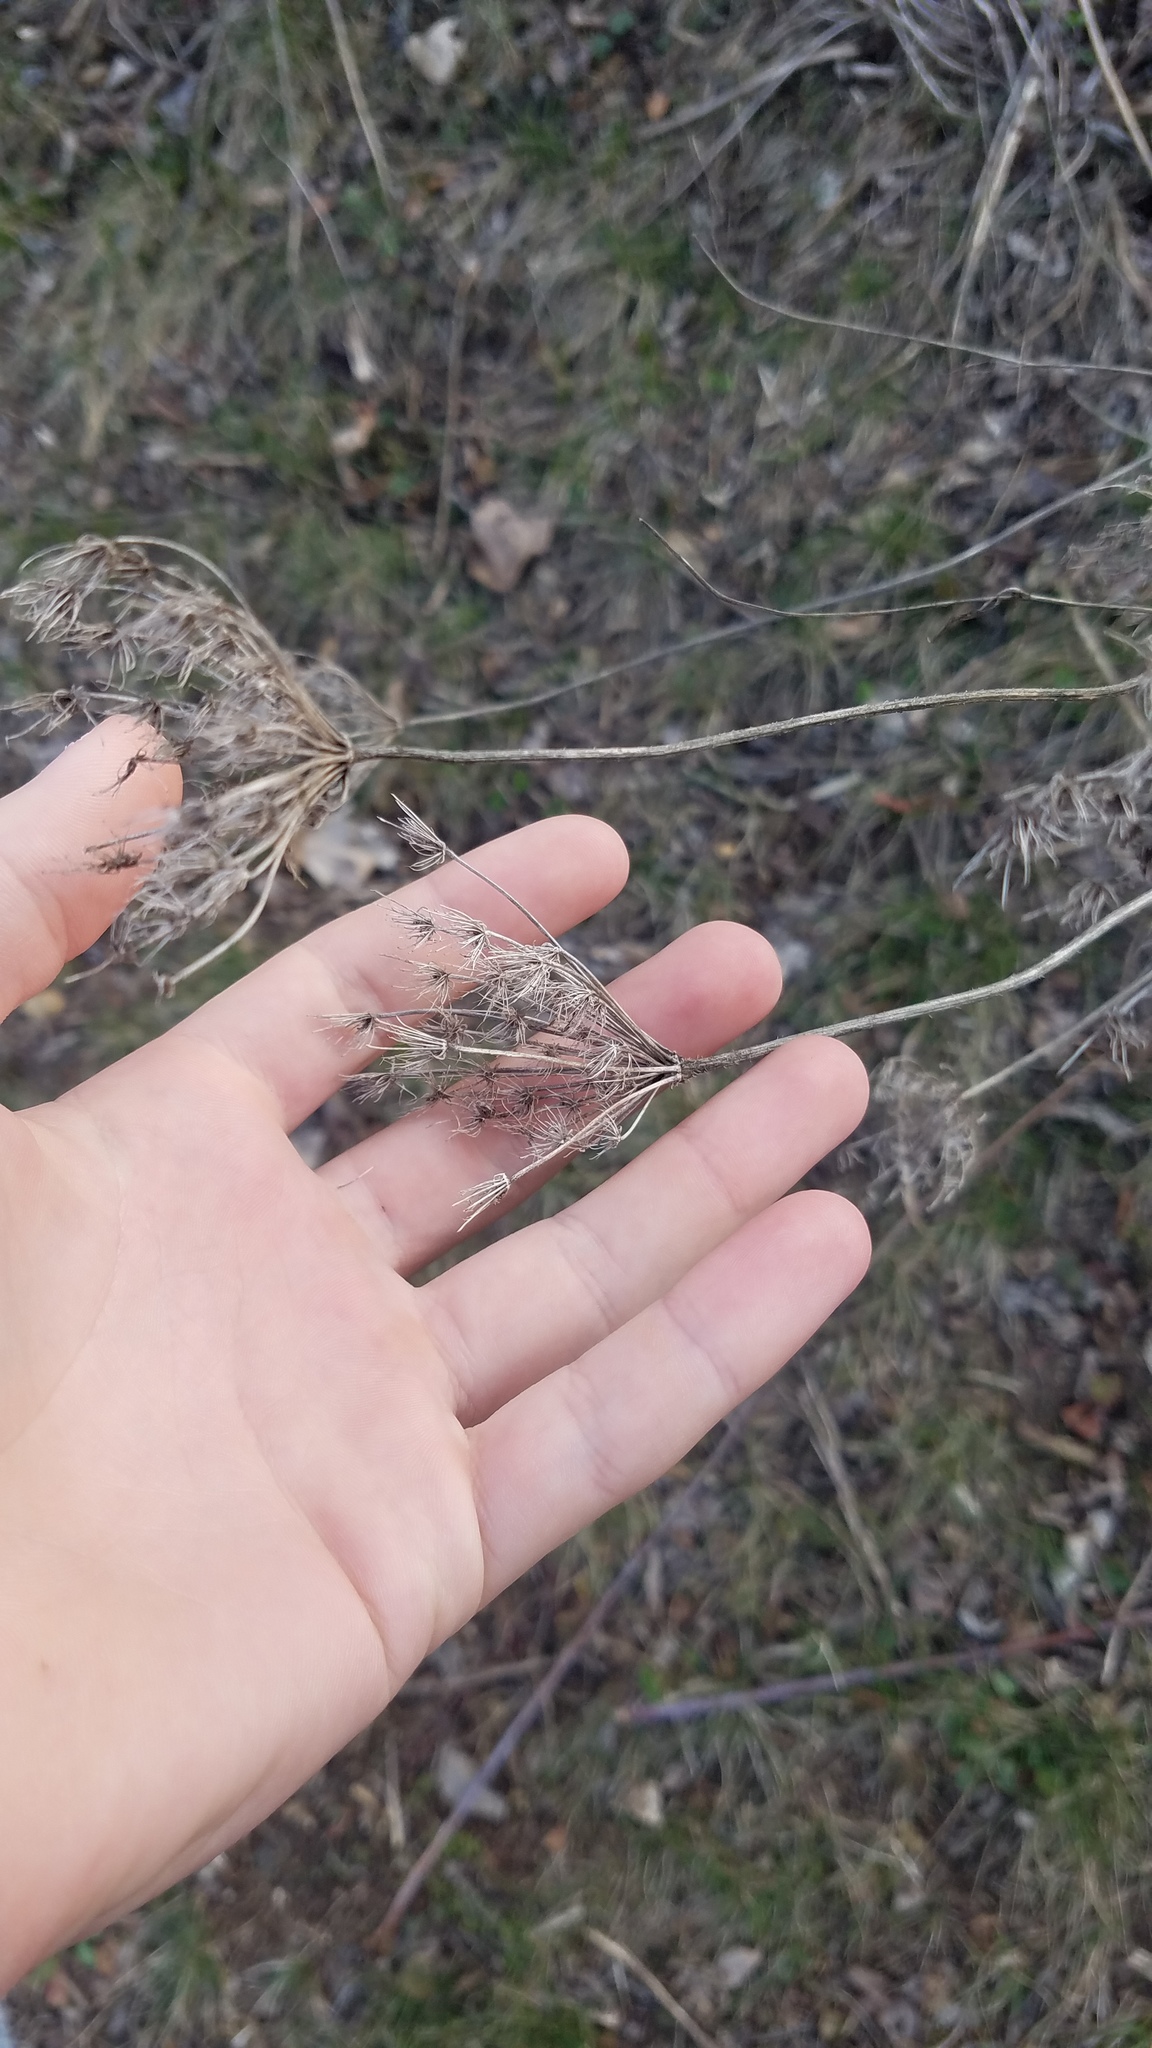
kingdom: Plantae
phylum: Tracheophyta
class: Magnoliopsida
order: Apiales
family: Apiaceae
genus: Daucus
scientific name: Daucus carota
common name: Wild carrot
